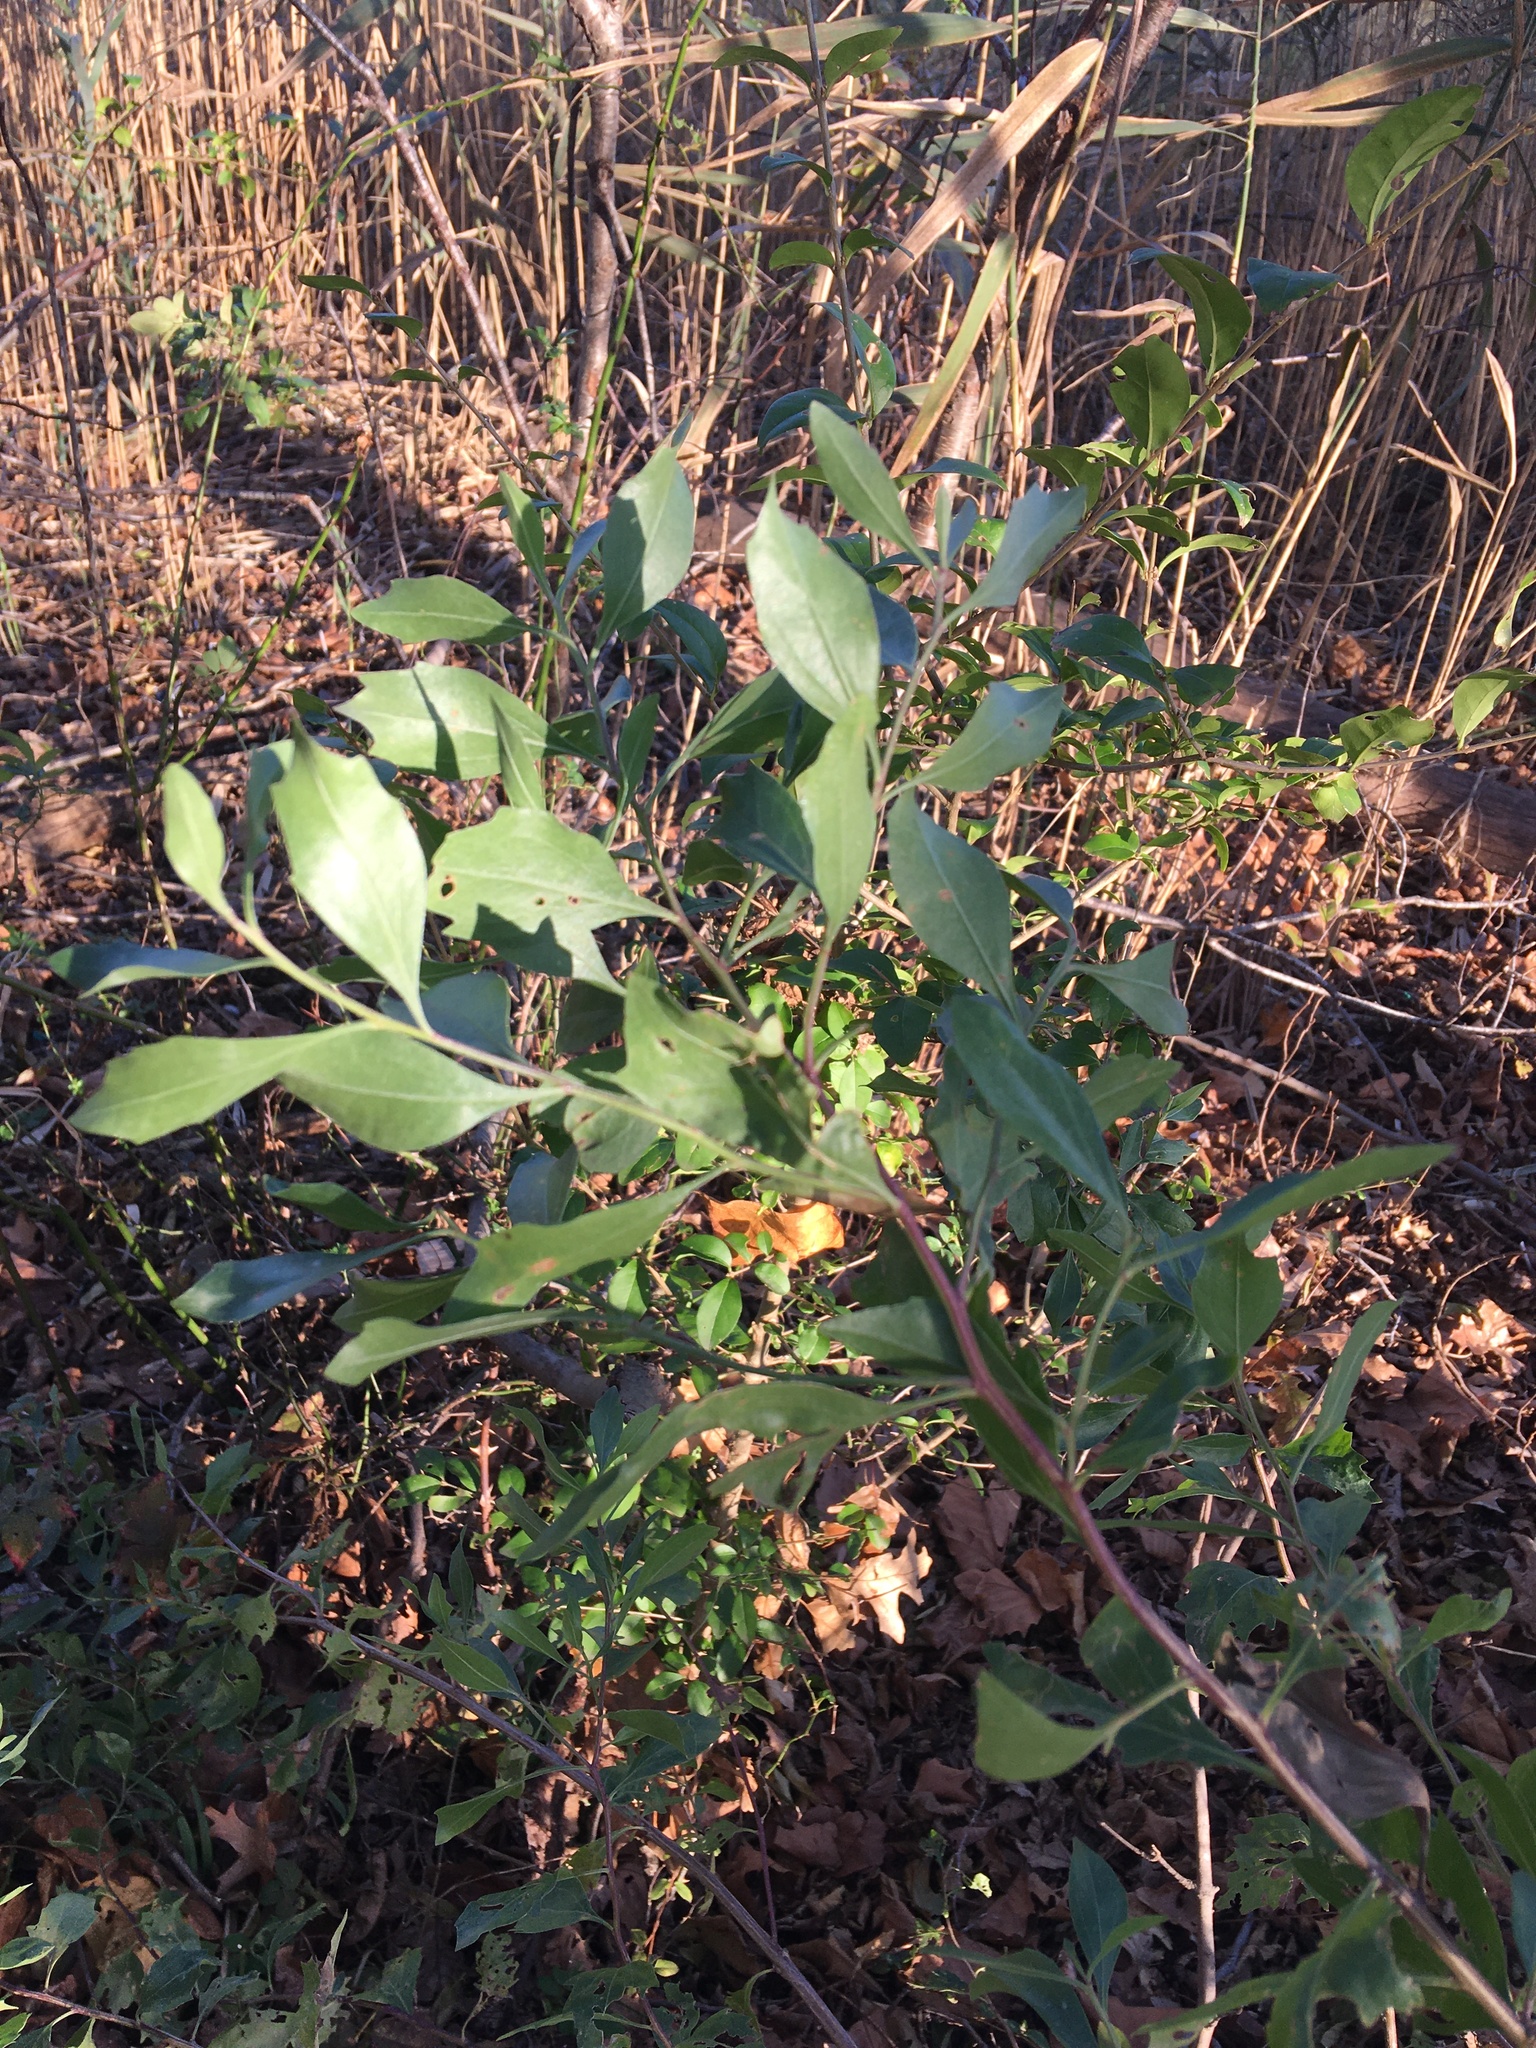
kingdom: Plantae
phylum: Tracheophyta
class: Magnoliopsida
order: Asterales
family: Asteraceae
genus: Baccharis
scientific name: Baccharis halimifolia
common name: Eastern baccharis
